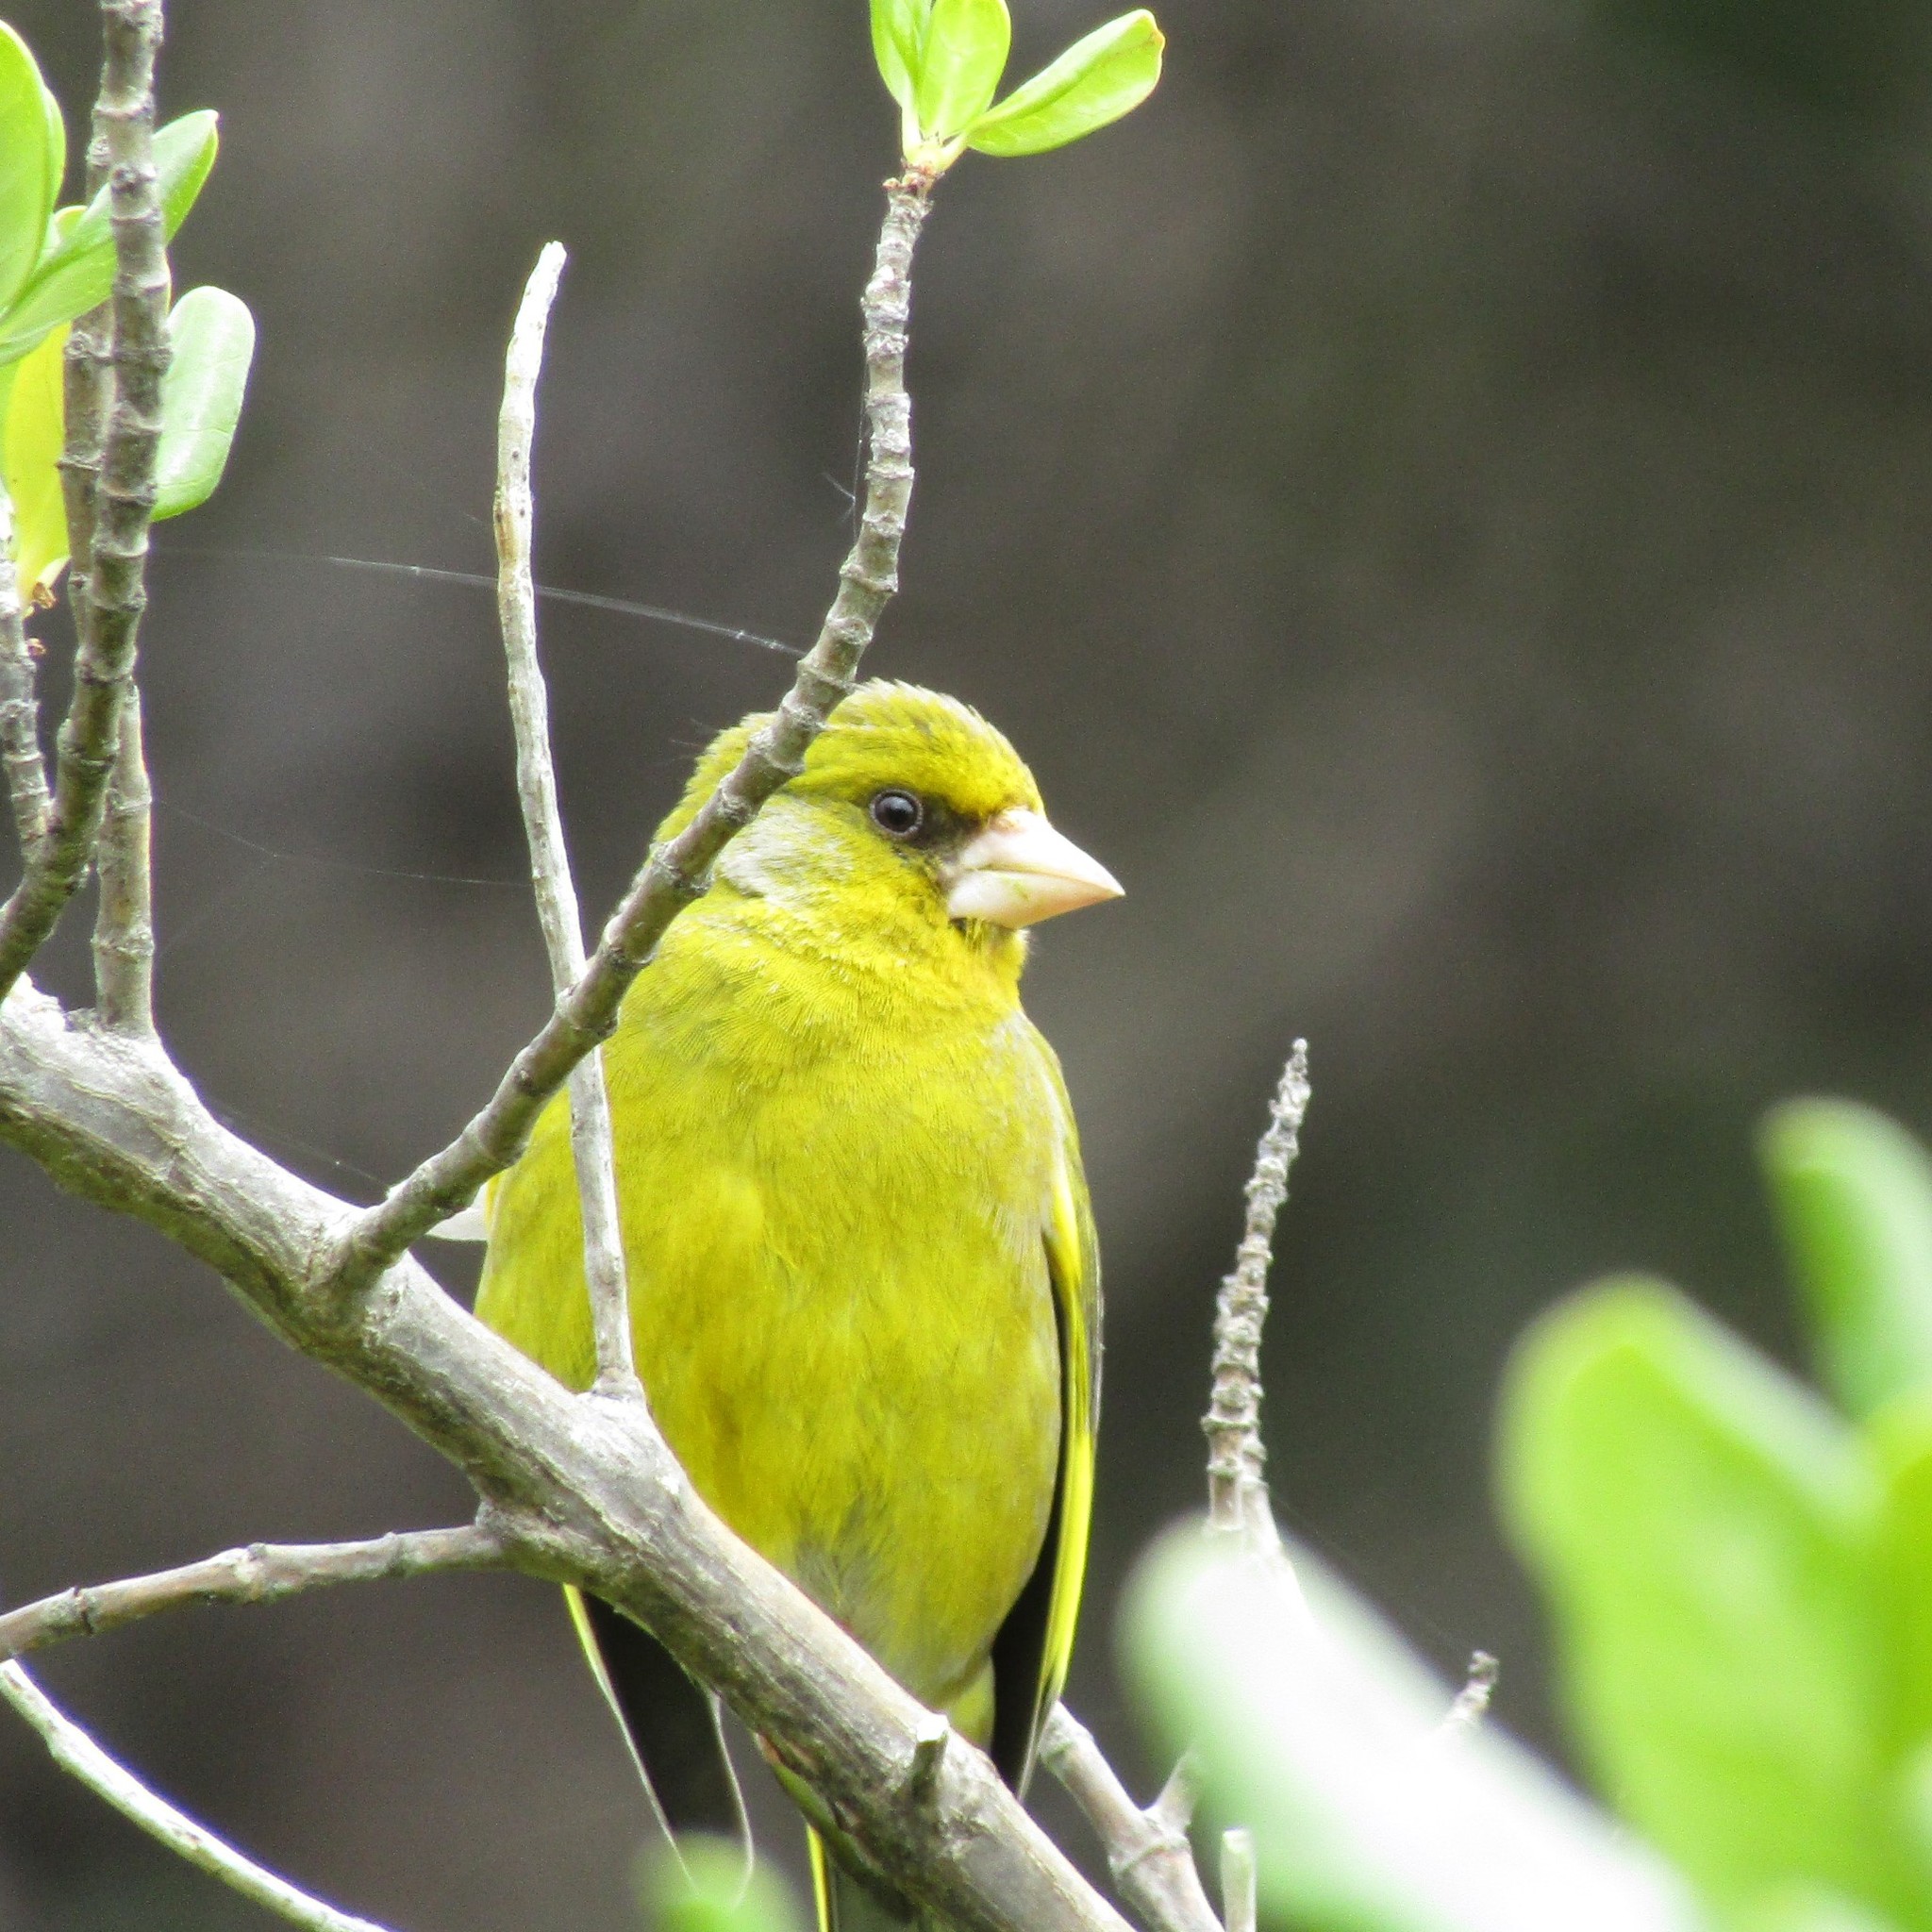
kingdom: Plantae
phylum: Tracheophyta
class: Liliopsida
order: Poales
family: Poaceae
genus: Chloris
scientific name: Chloris chloris
